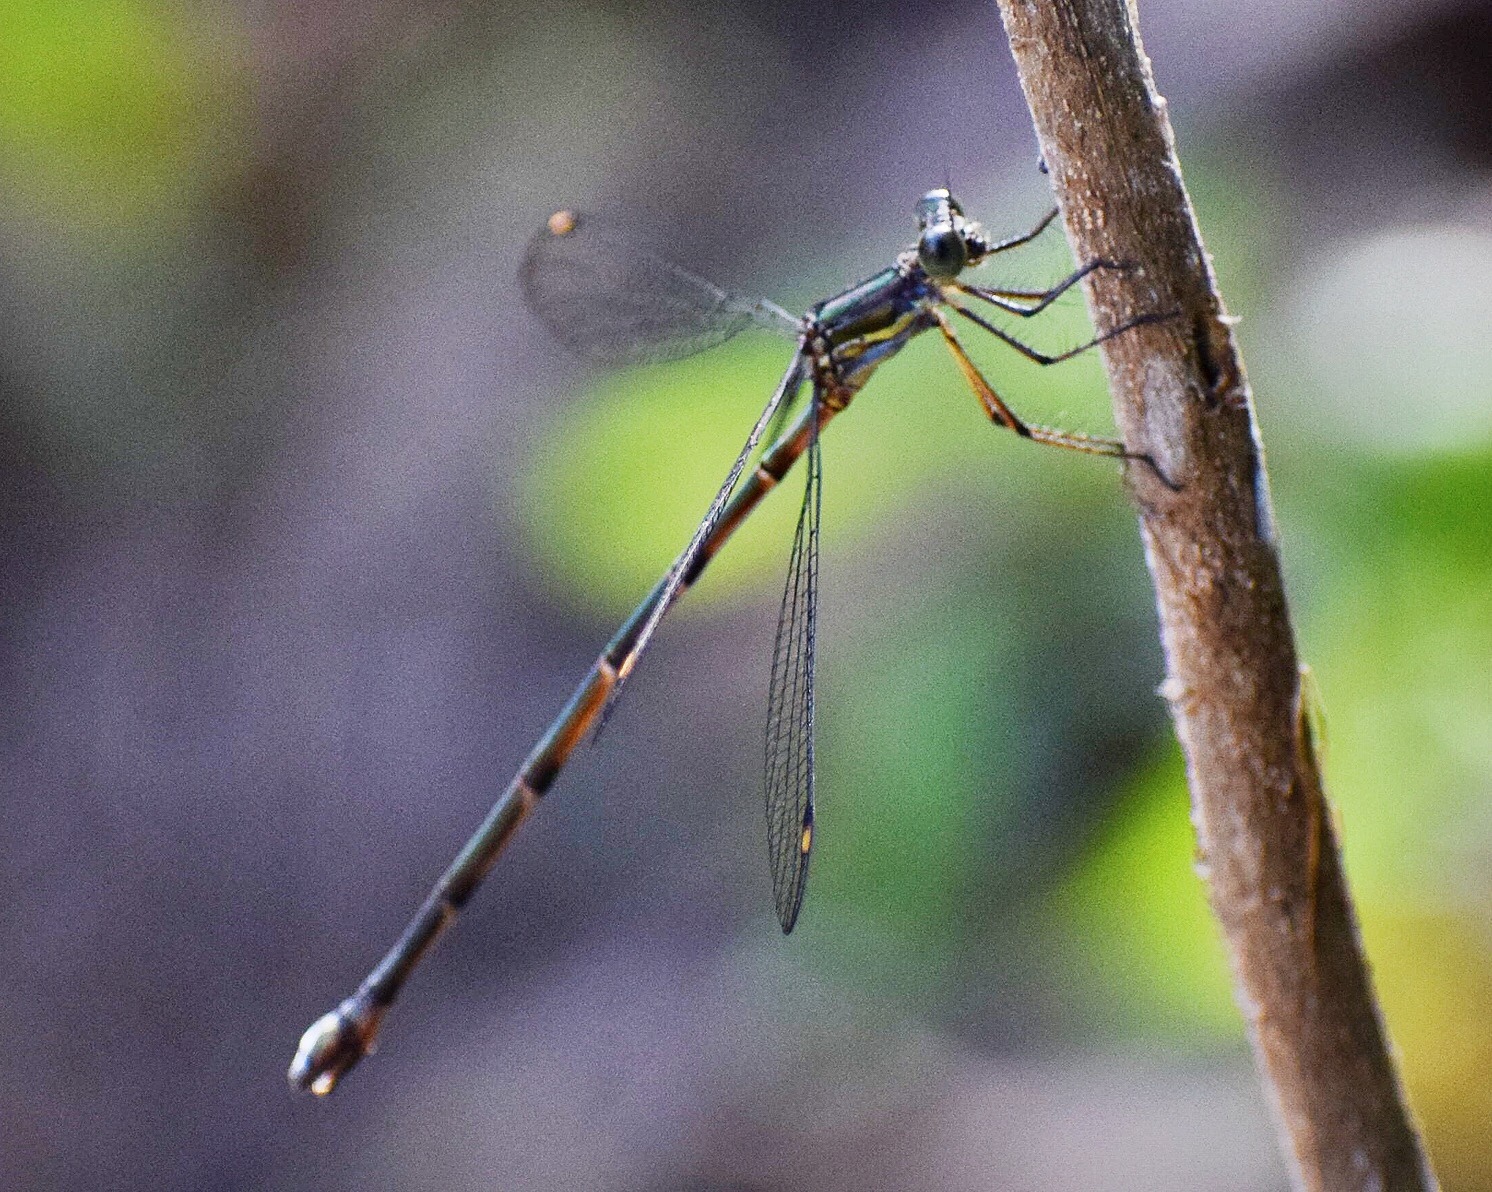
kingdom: Animalia
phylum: Arthropoda
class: Insecta
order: Odonata
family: Synlestidae
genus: Chlorolestes
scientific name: Chlorolestes tessellatus
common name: Forest malachite
